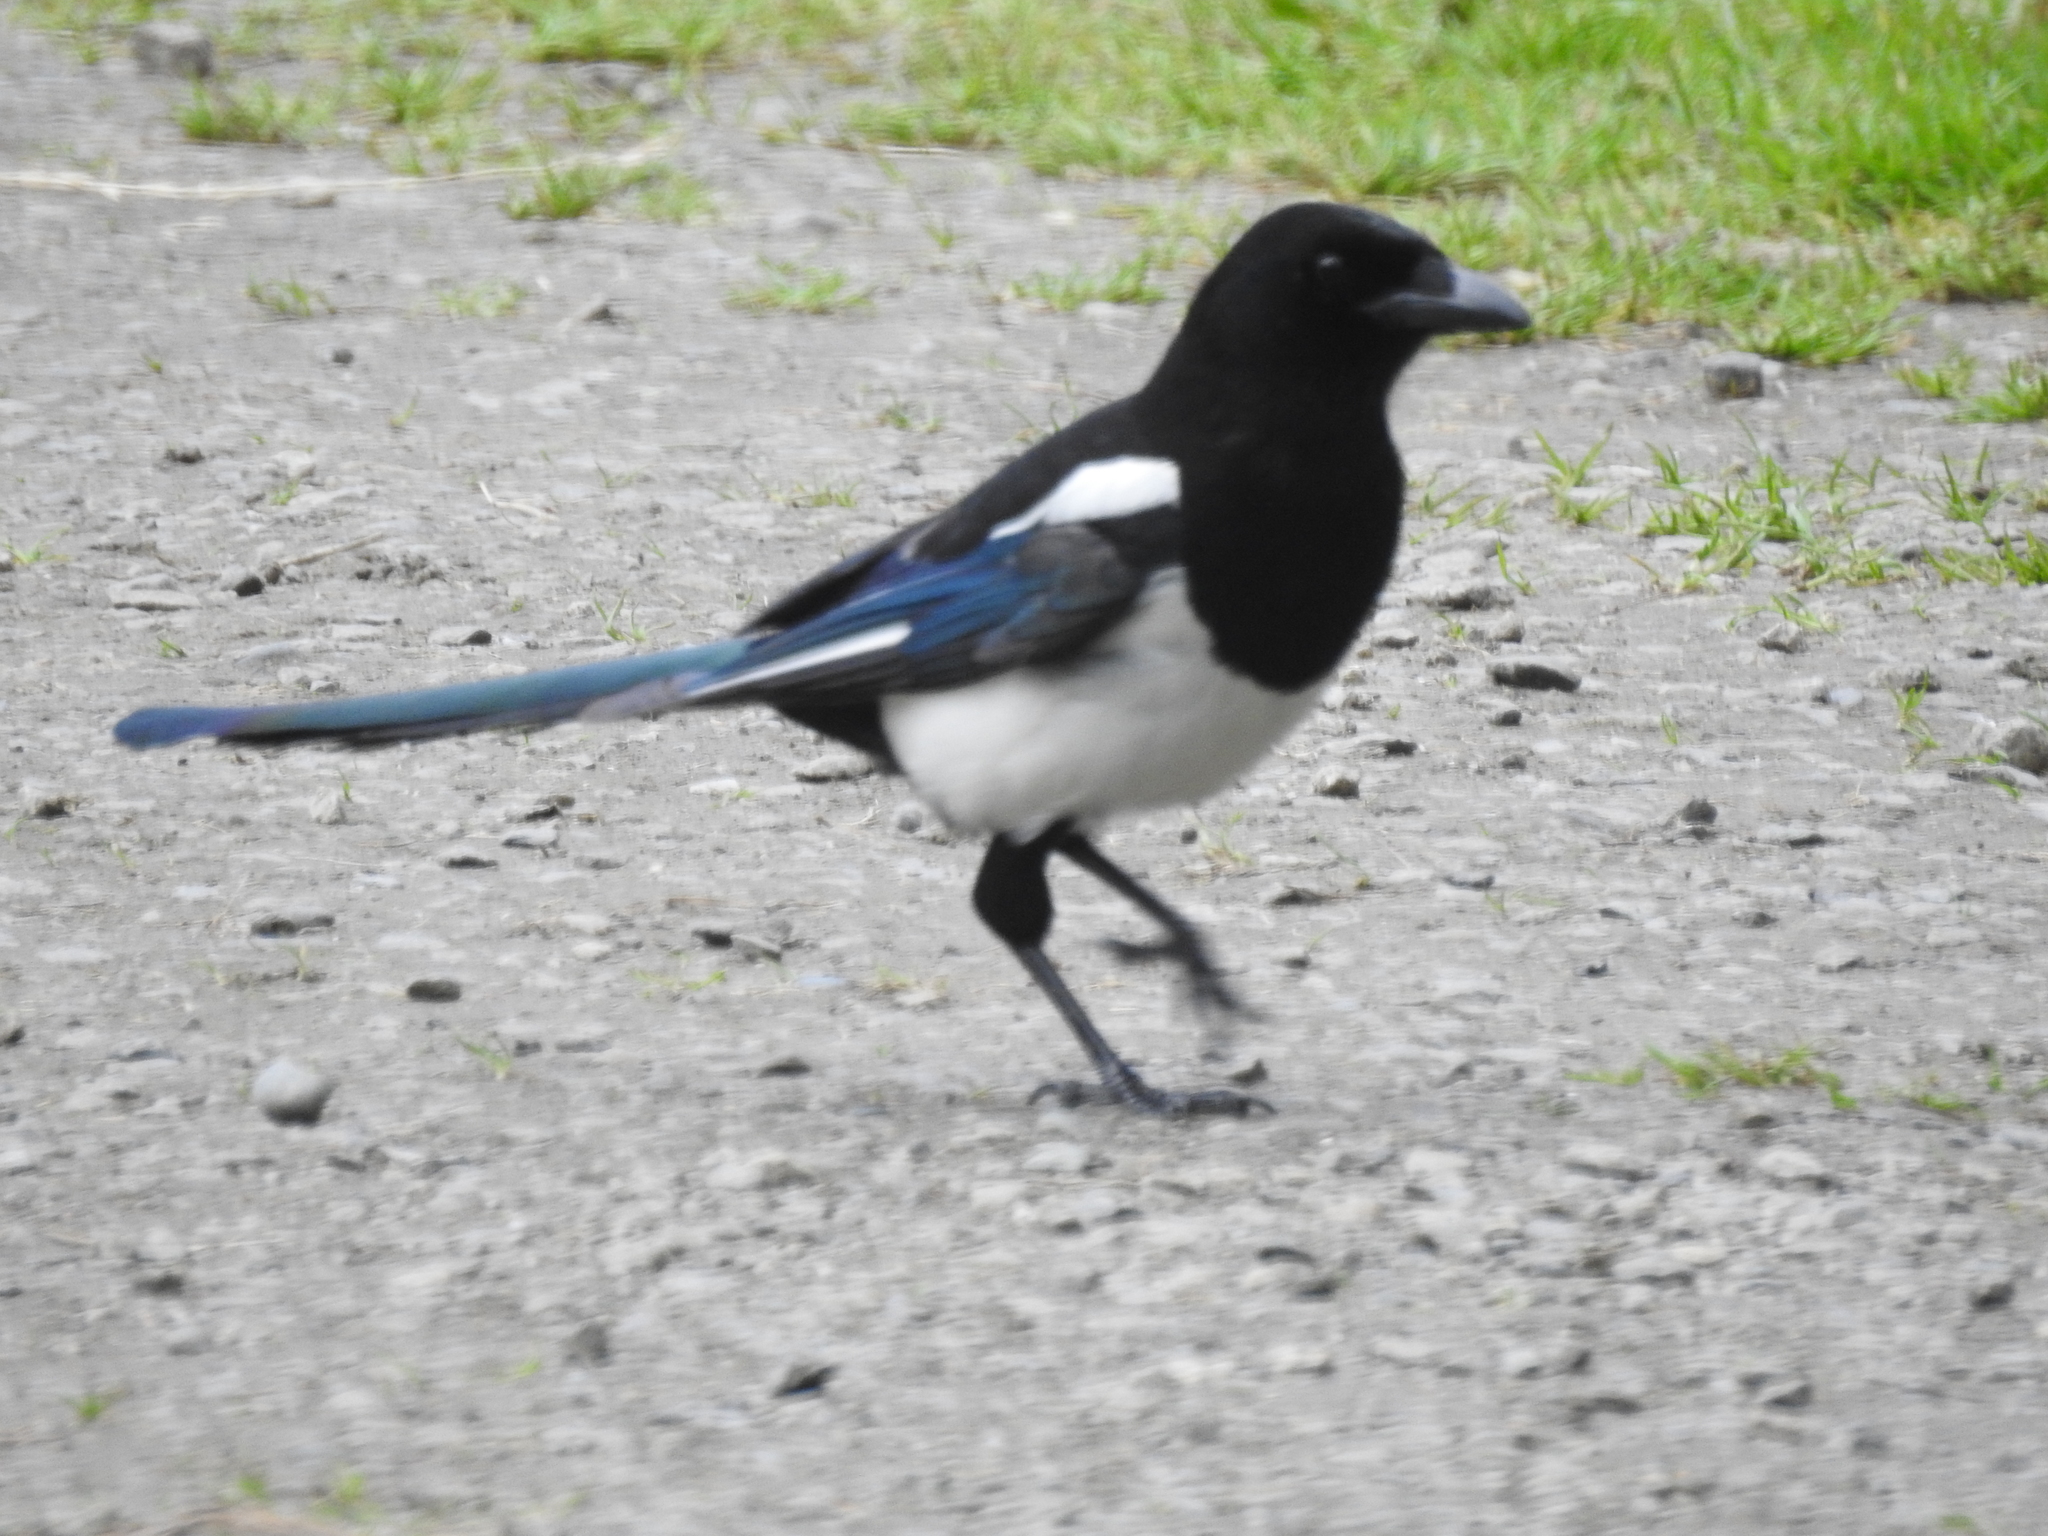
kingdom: Animalia
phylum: Chordata
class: Aves
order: Passeriformes
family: Corvidae
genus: Pica
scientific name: Pica pica
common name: Eurasian magpie
